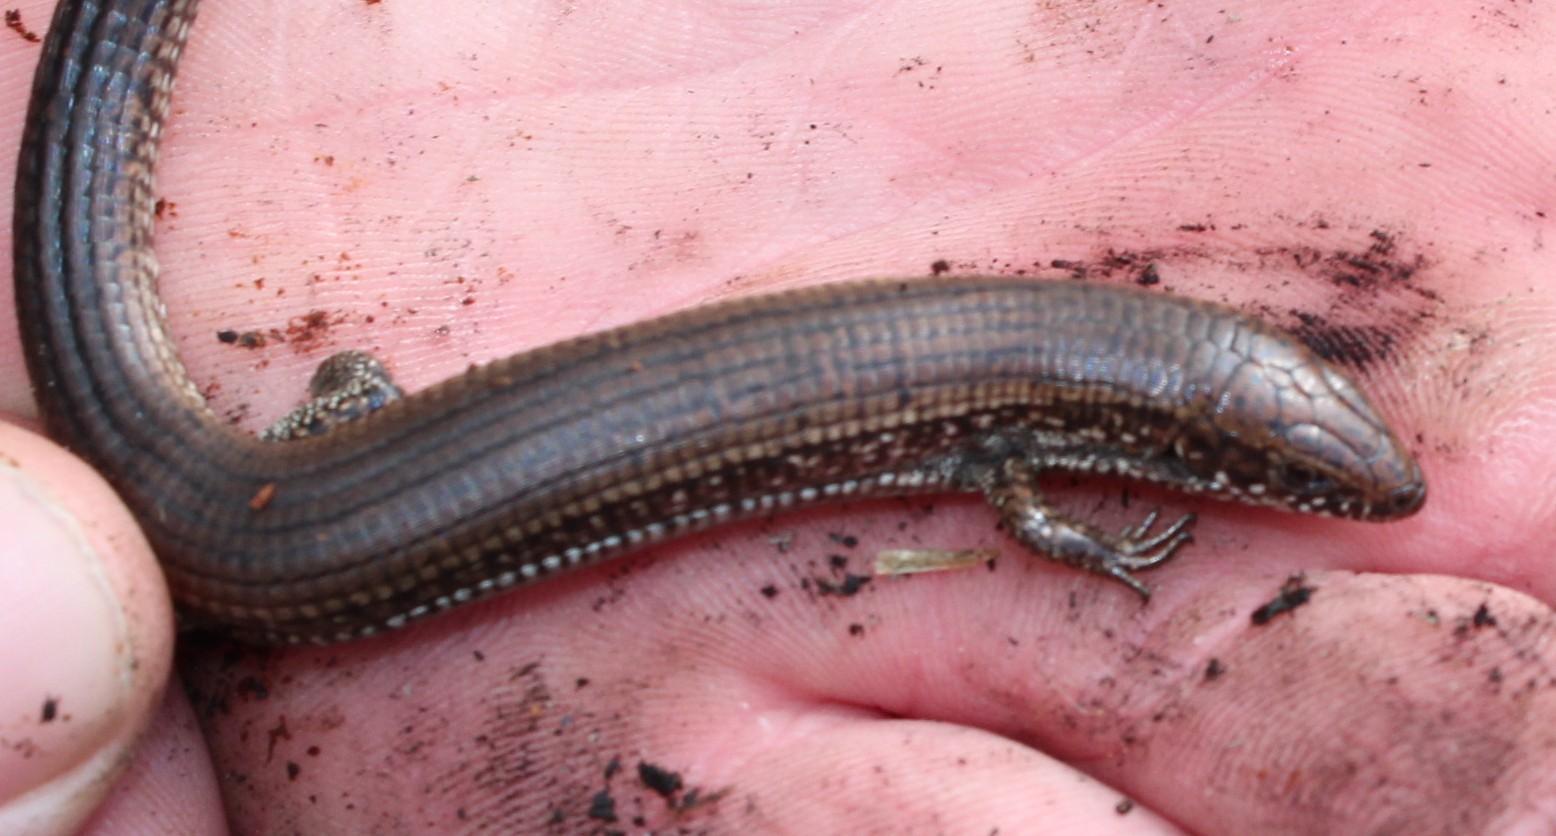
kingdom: Animalia
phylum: Chordata
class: Squamata
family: Gerrhosauridae
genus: Tetradactylus
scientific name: Tetradactylus seps
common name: Five-toed whip lizard
